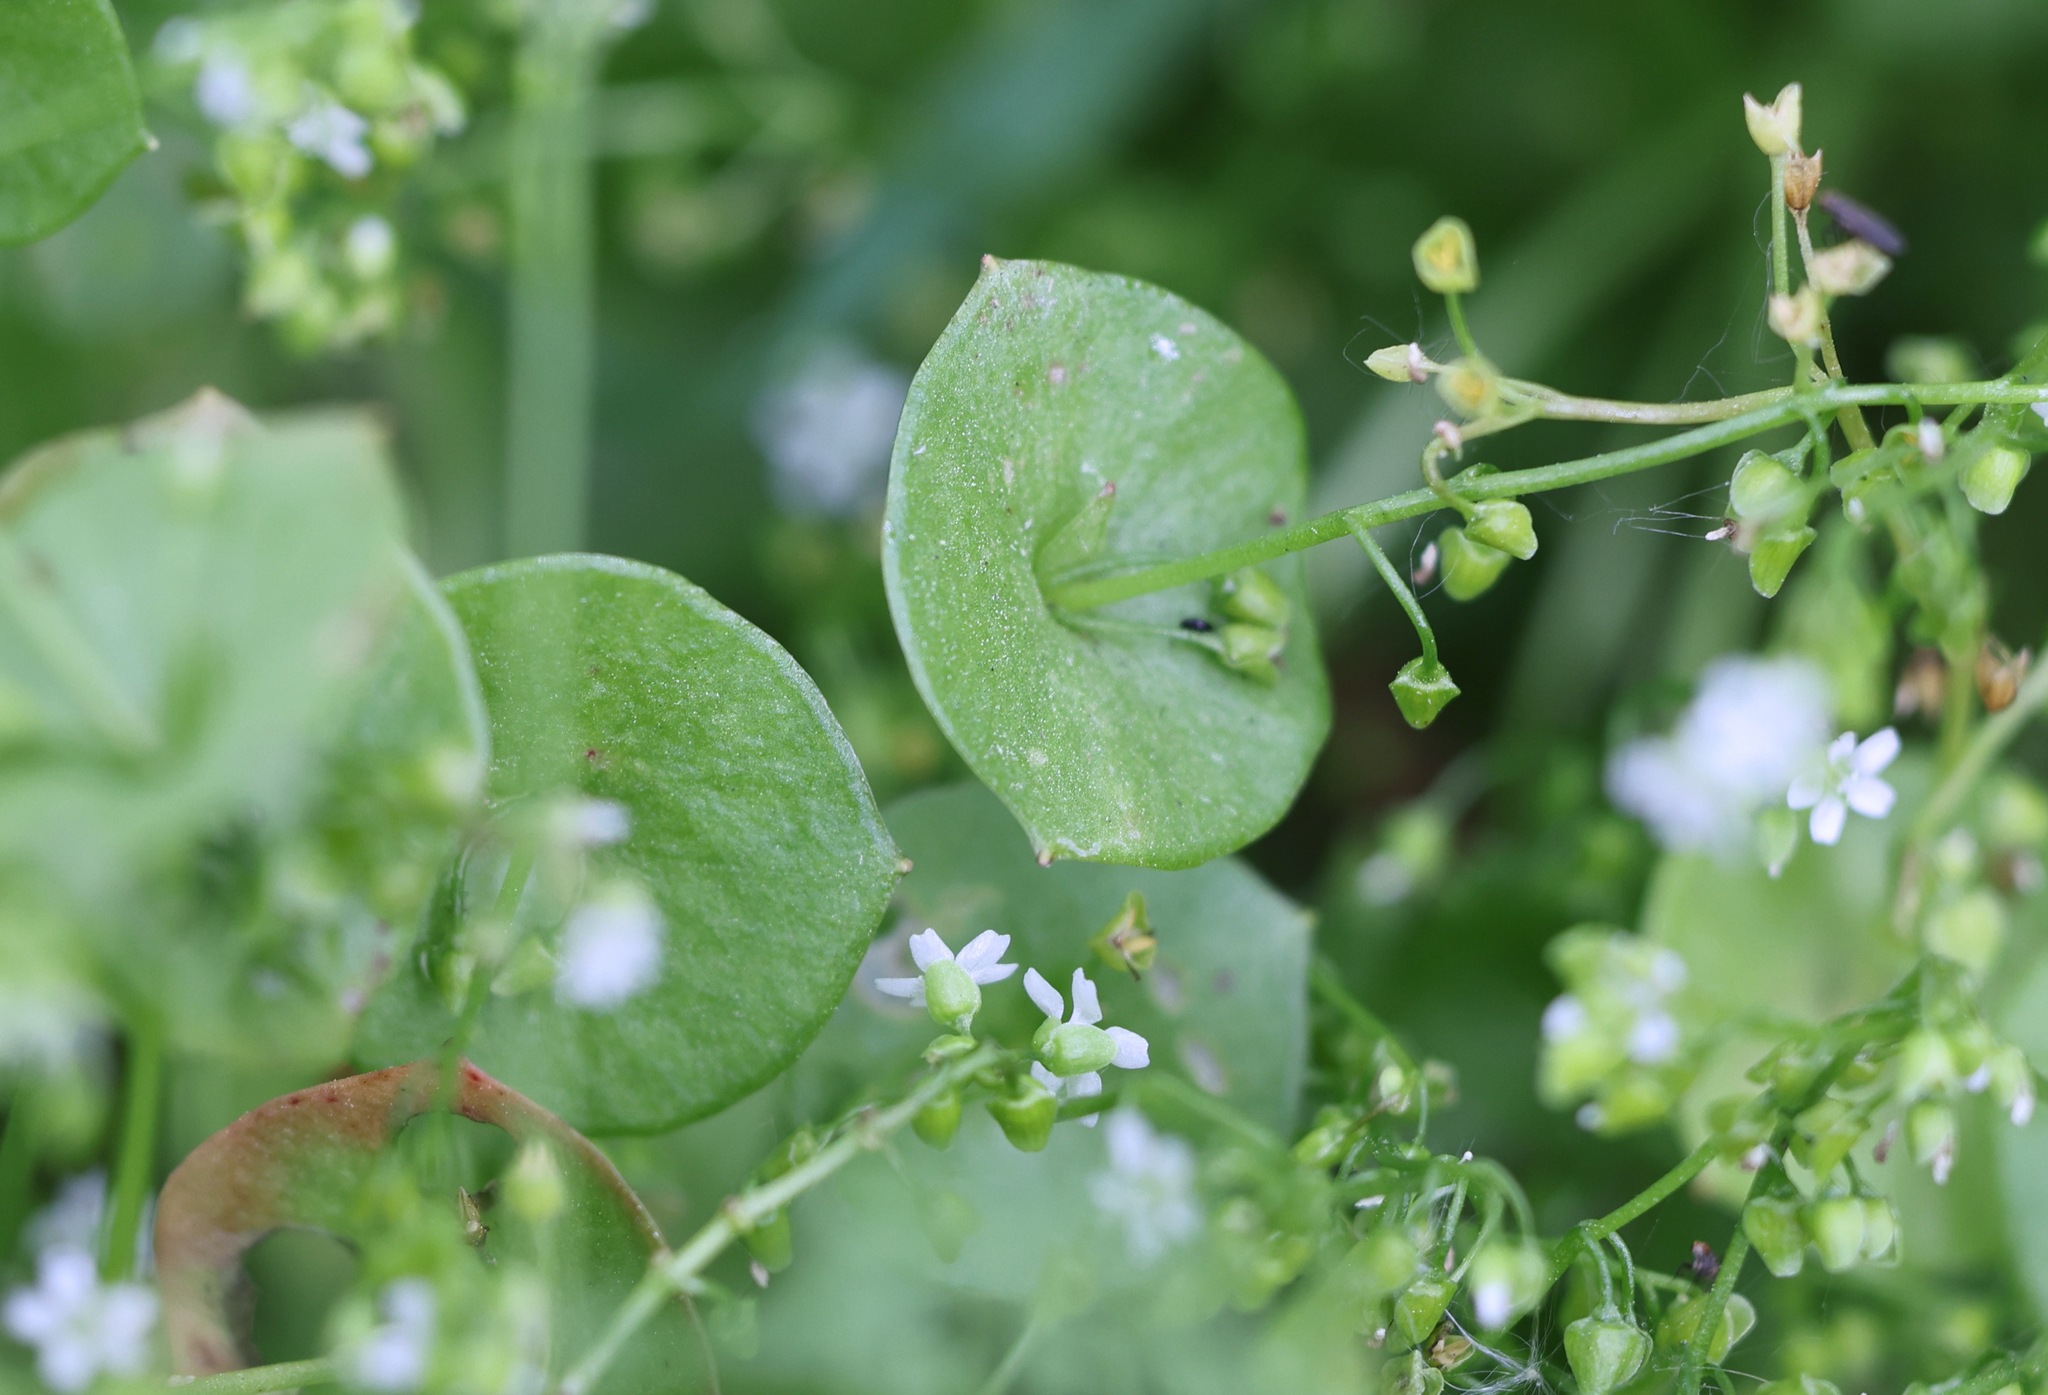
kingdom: Plantae
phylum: Tracheophyta
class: Magnoliopsida
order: Caryophyllales
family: Montiaceae
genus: Claytonia
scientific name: Claytonia perfoliata
